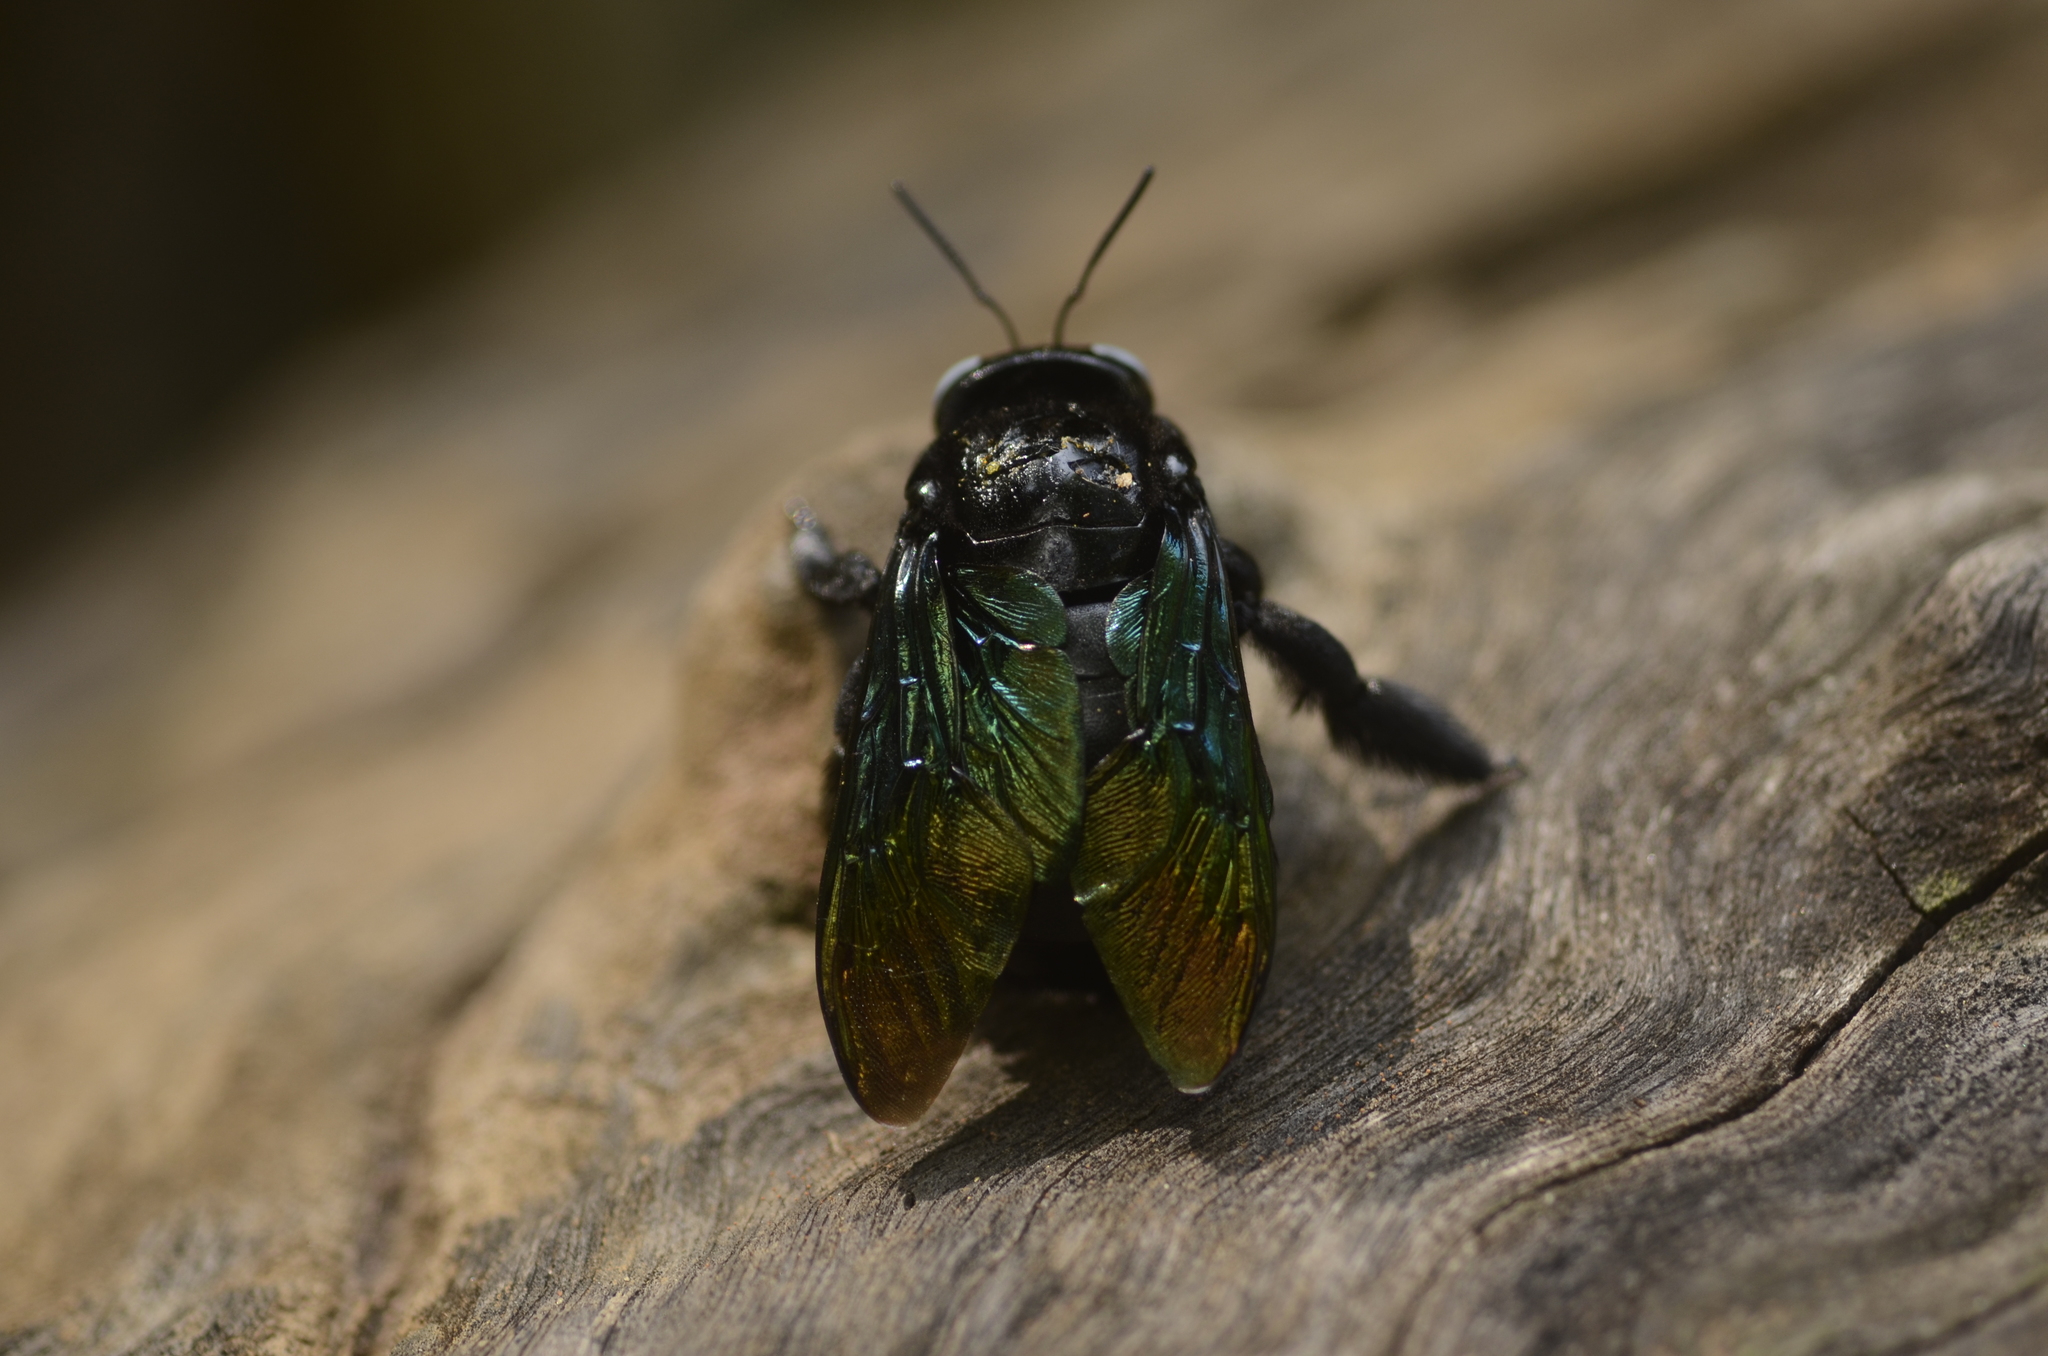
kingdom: Animalia
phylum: Arthropoda
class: Insecta
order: Hymenoptera
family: Apidae
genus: Xylocopa
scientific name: Xylocopa tenuiscapa
